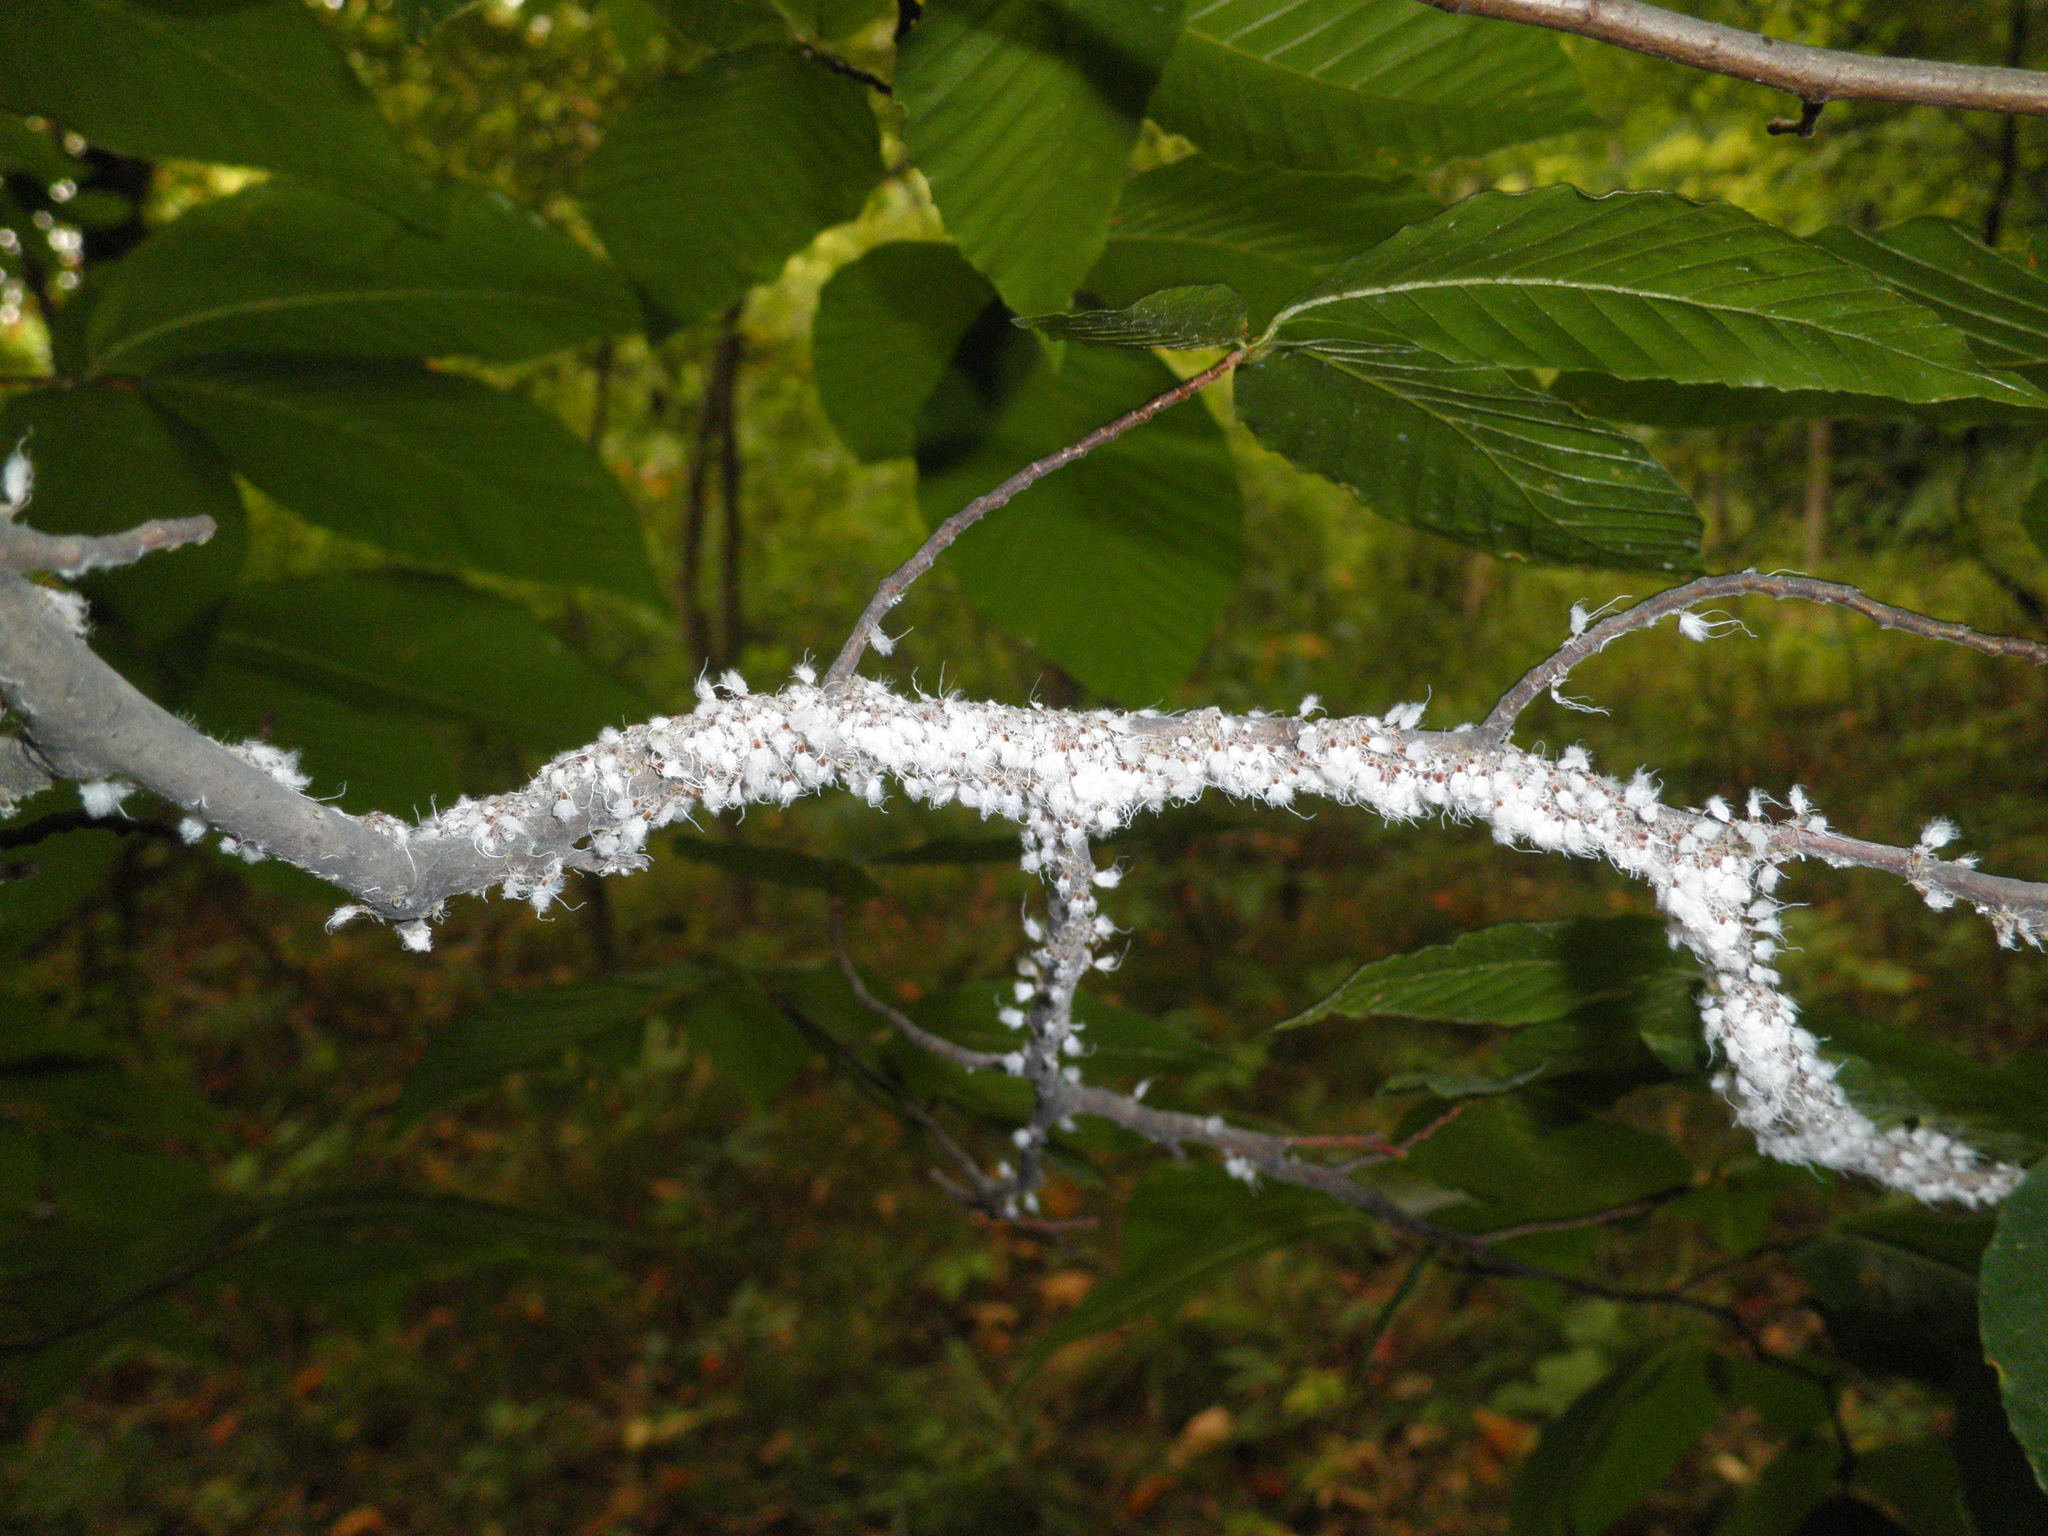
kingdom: Animalia
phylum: Arthropoda
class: Insecta
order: Hemiptera
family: Aphididae
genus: Grylloprociphilus
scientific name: Grylloprociphilus imbricator
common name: Beech blight aphid
